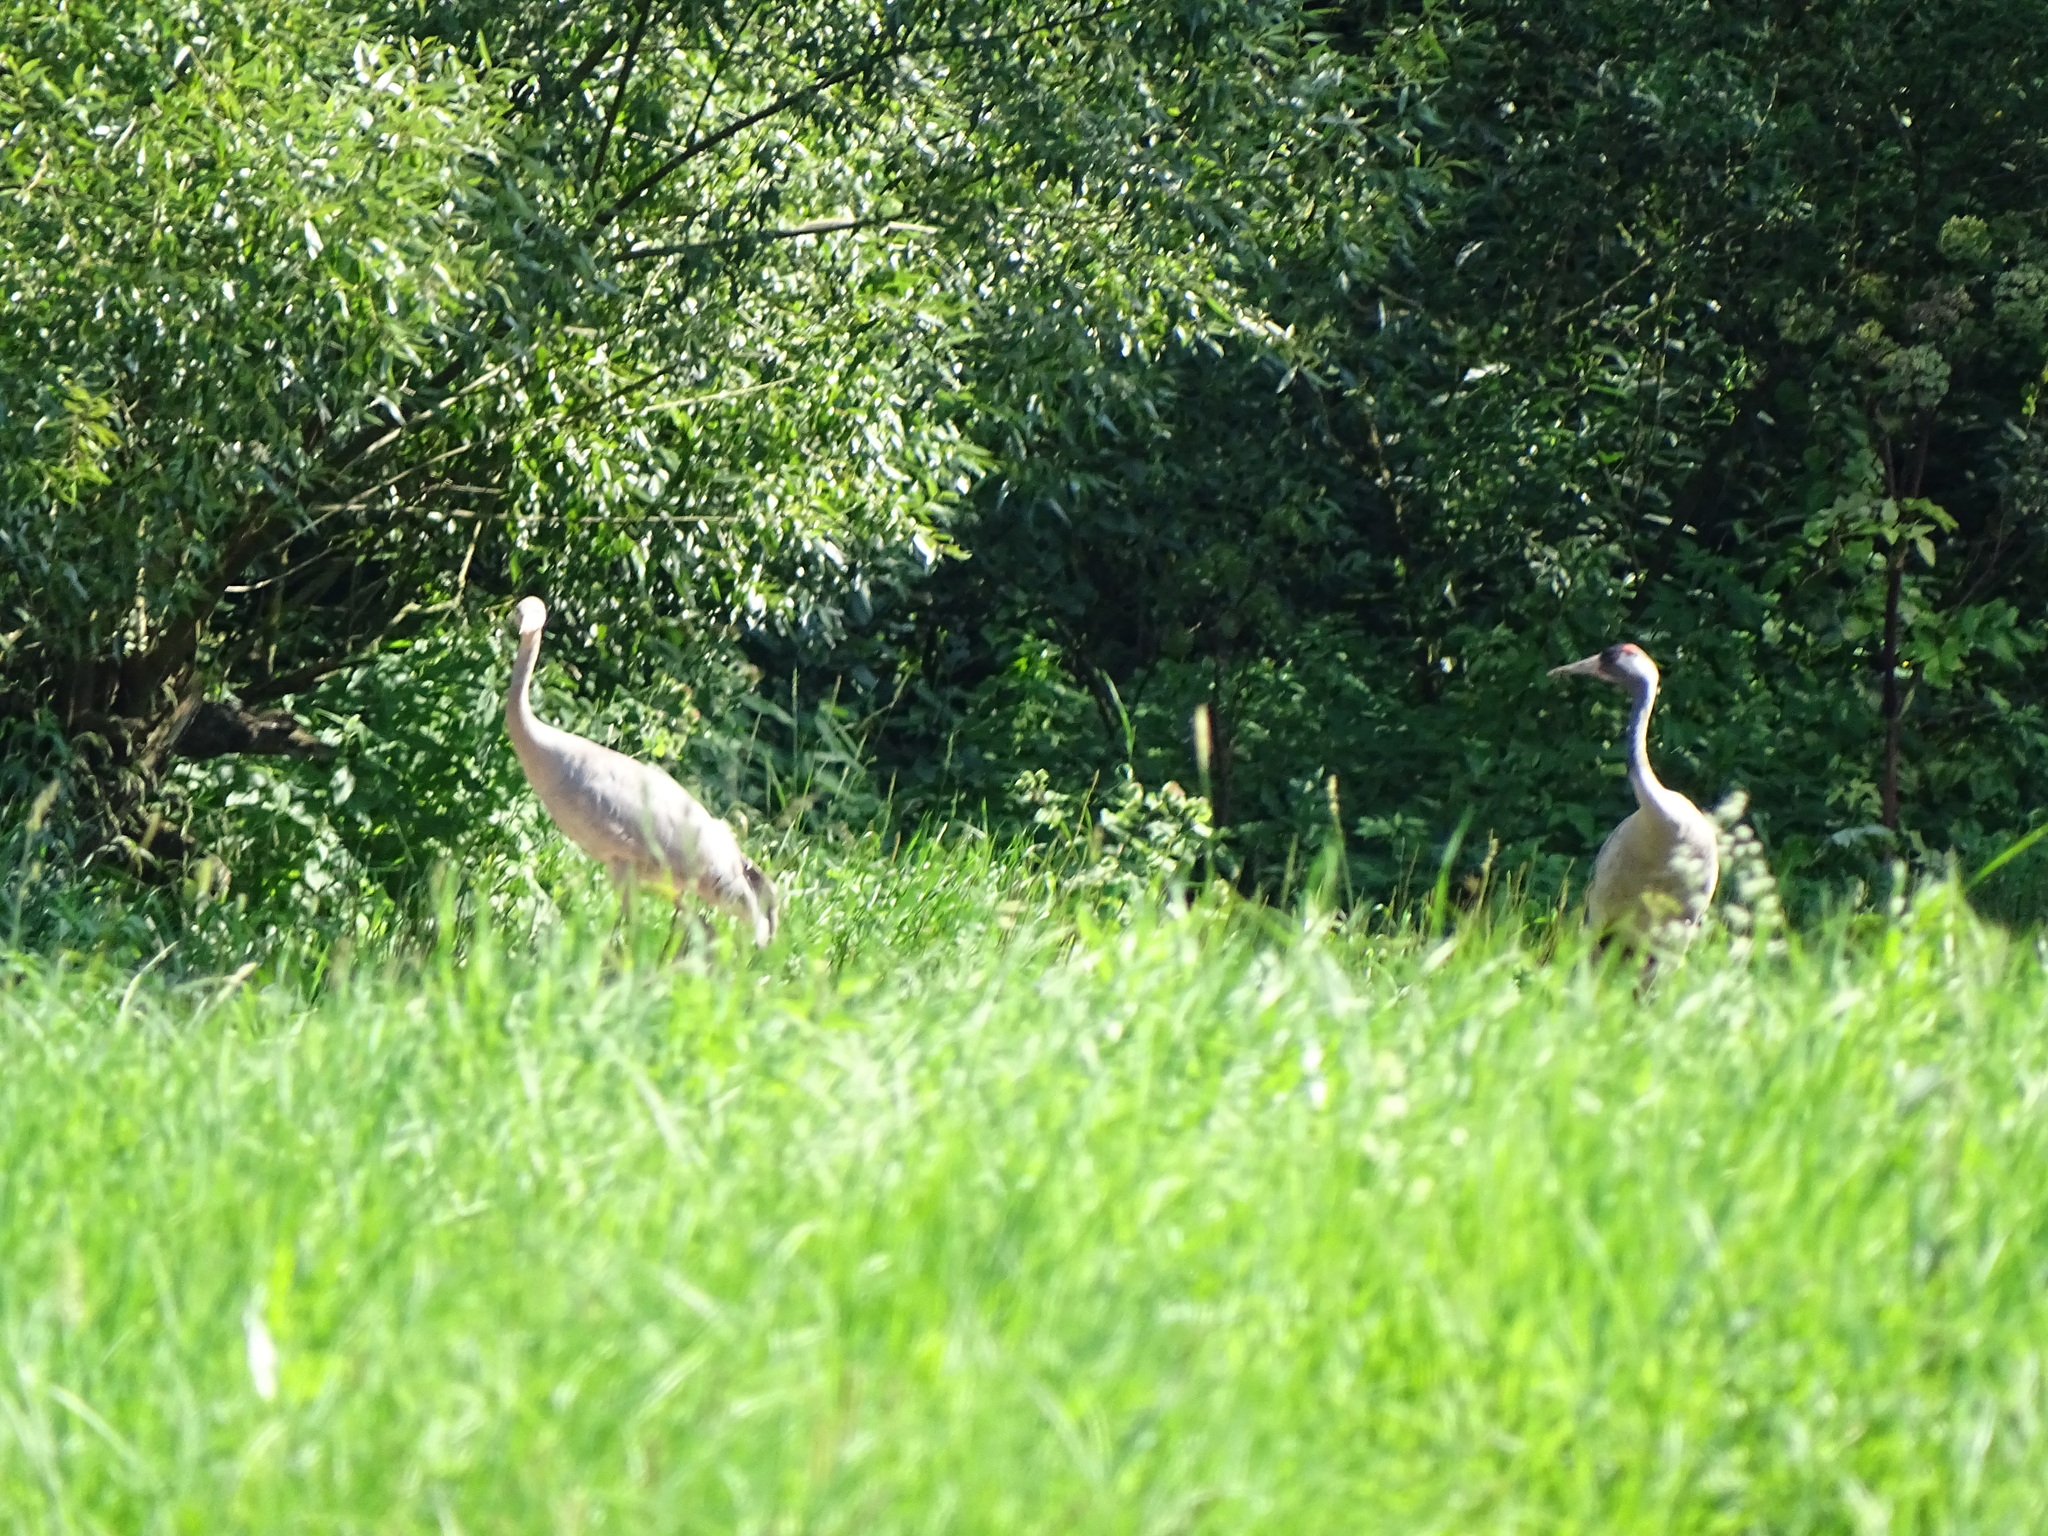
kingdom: Animalia
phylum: Chordata
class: Aves
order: Gruiformes
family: Gruidae
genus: Grus
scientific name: Grus grus
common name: Common crane
